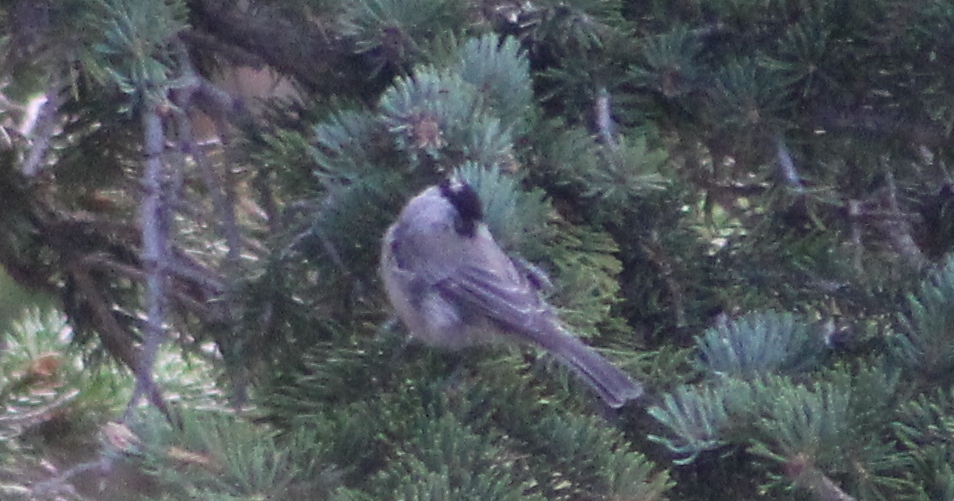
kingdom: Animalia
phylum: Chordata
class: Aves
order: Passeriformes
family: Paridae
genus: Poecile
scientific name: Poecile gambeli
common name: Mountain chickadee
